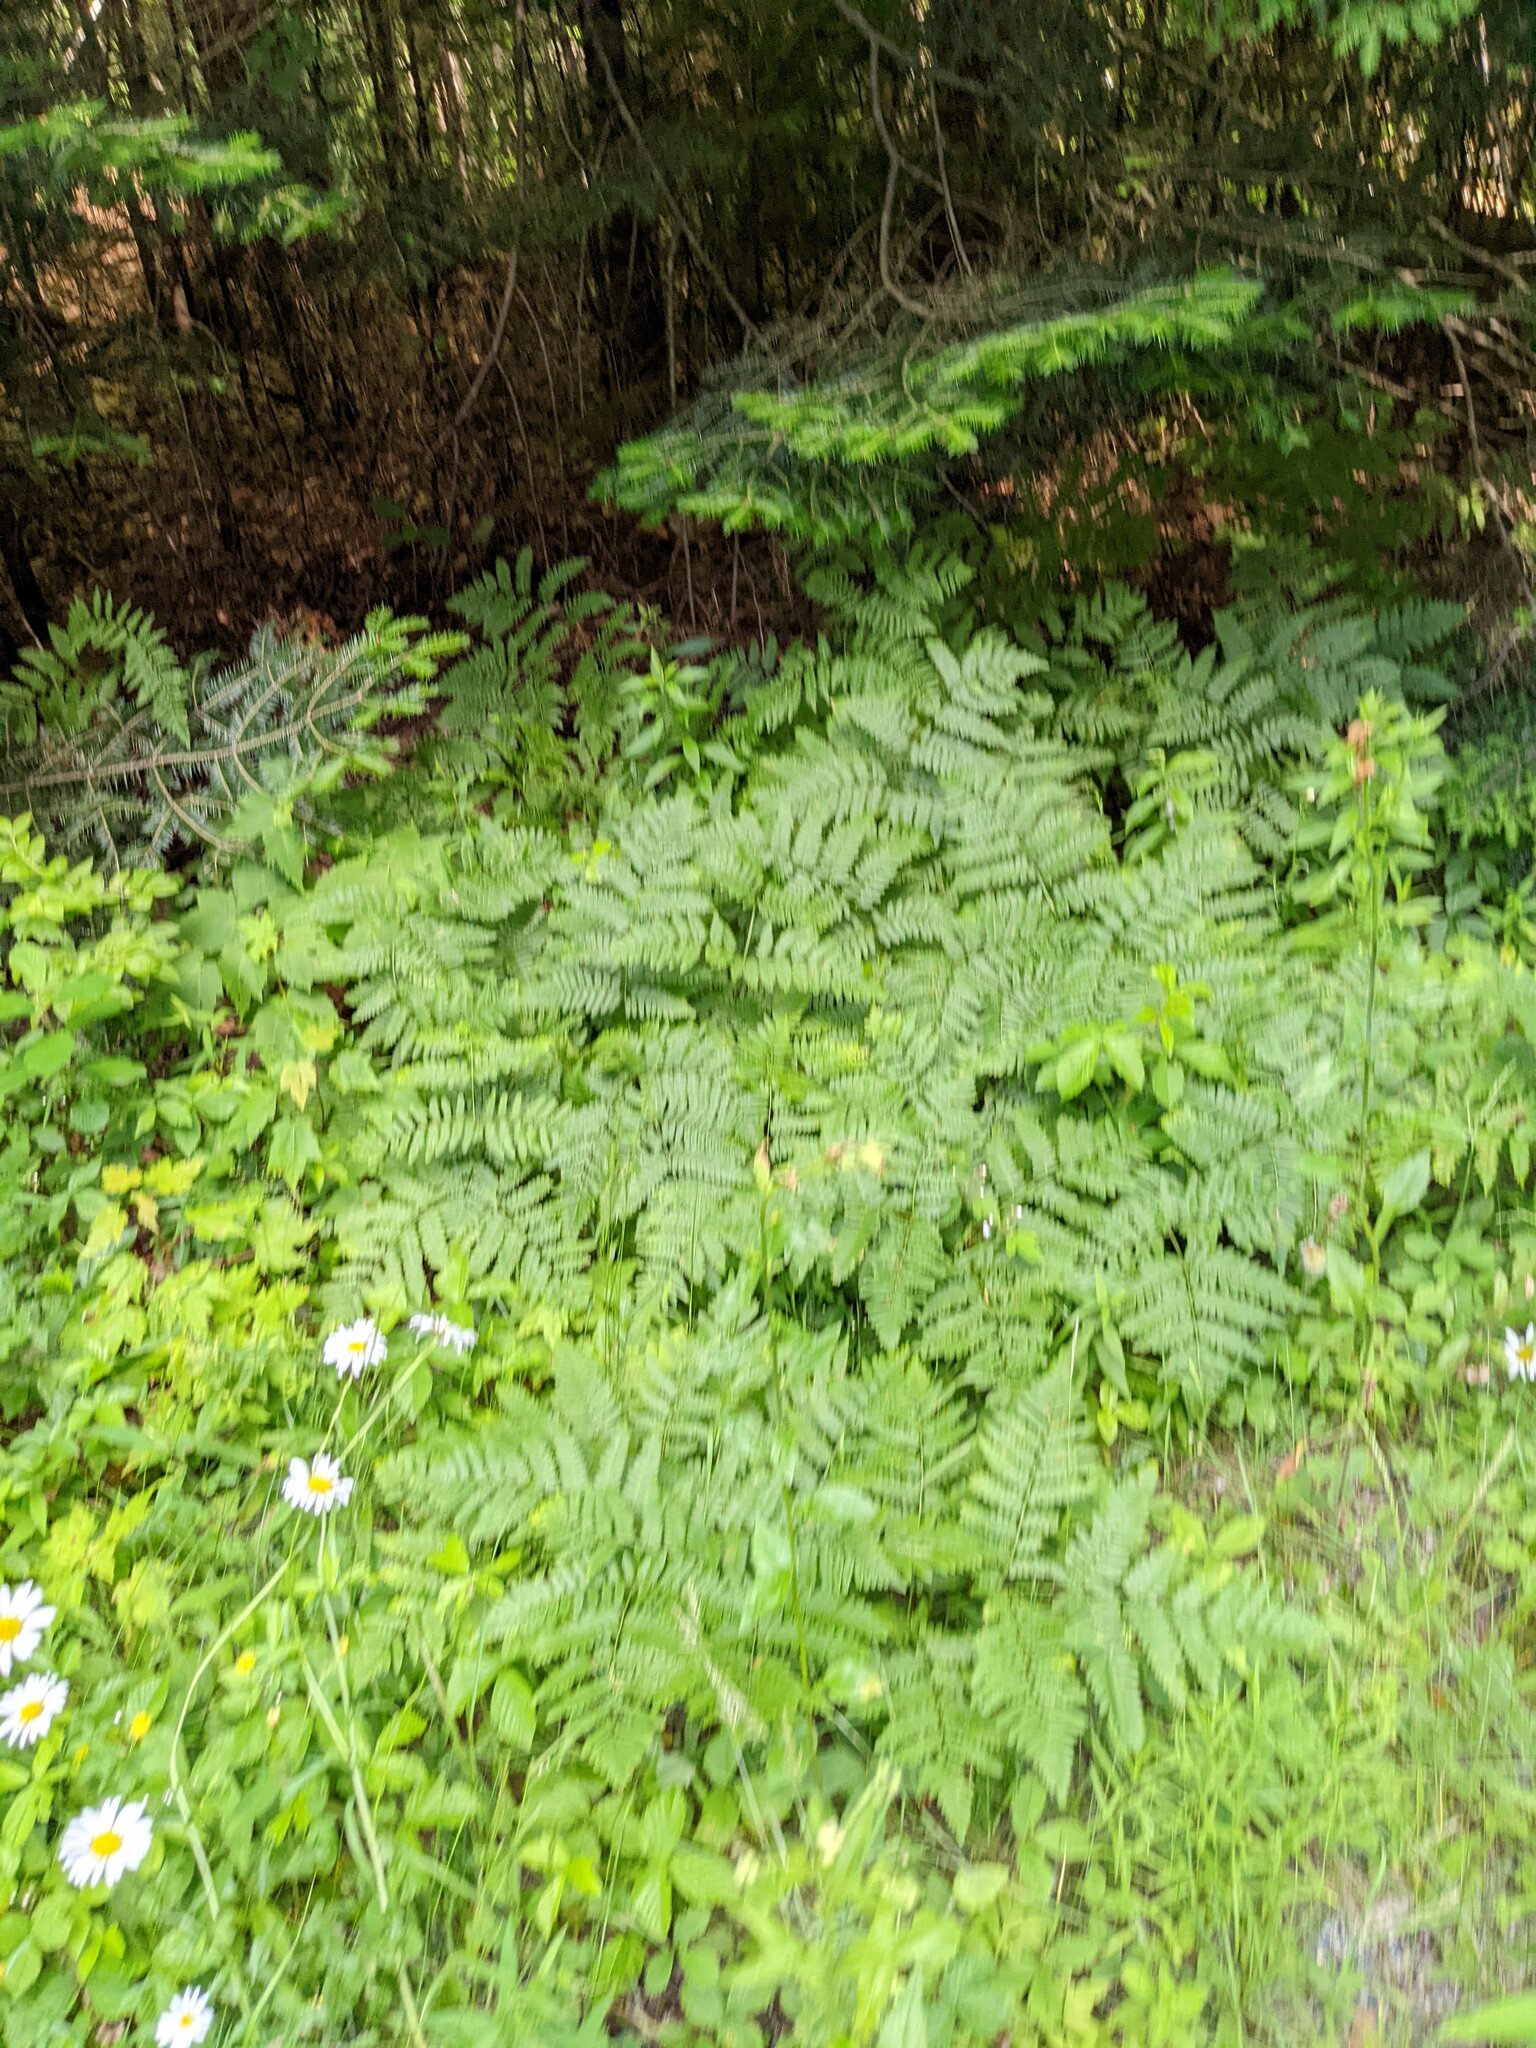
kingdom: Plantae
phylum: Tracheophyta
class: Polypodiopsida
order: Polypodiales
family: Dennstaedtiaceae
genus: Pteridium
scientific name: Pteridium aquilinum
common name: Bracken
